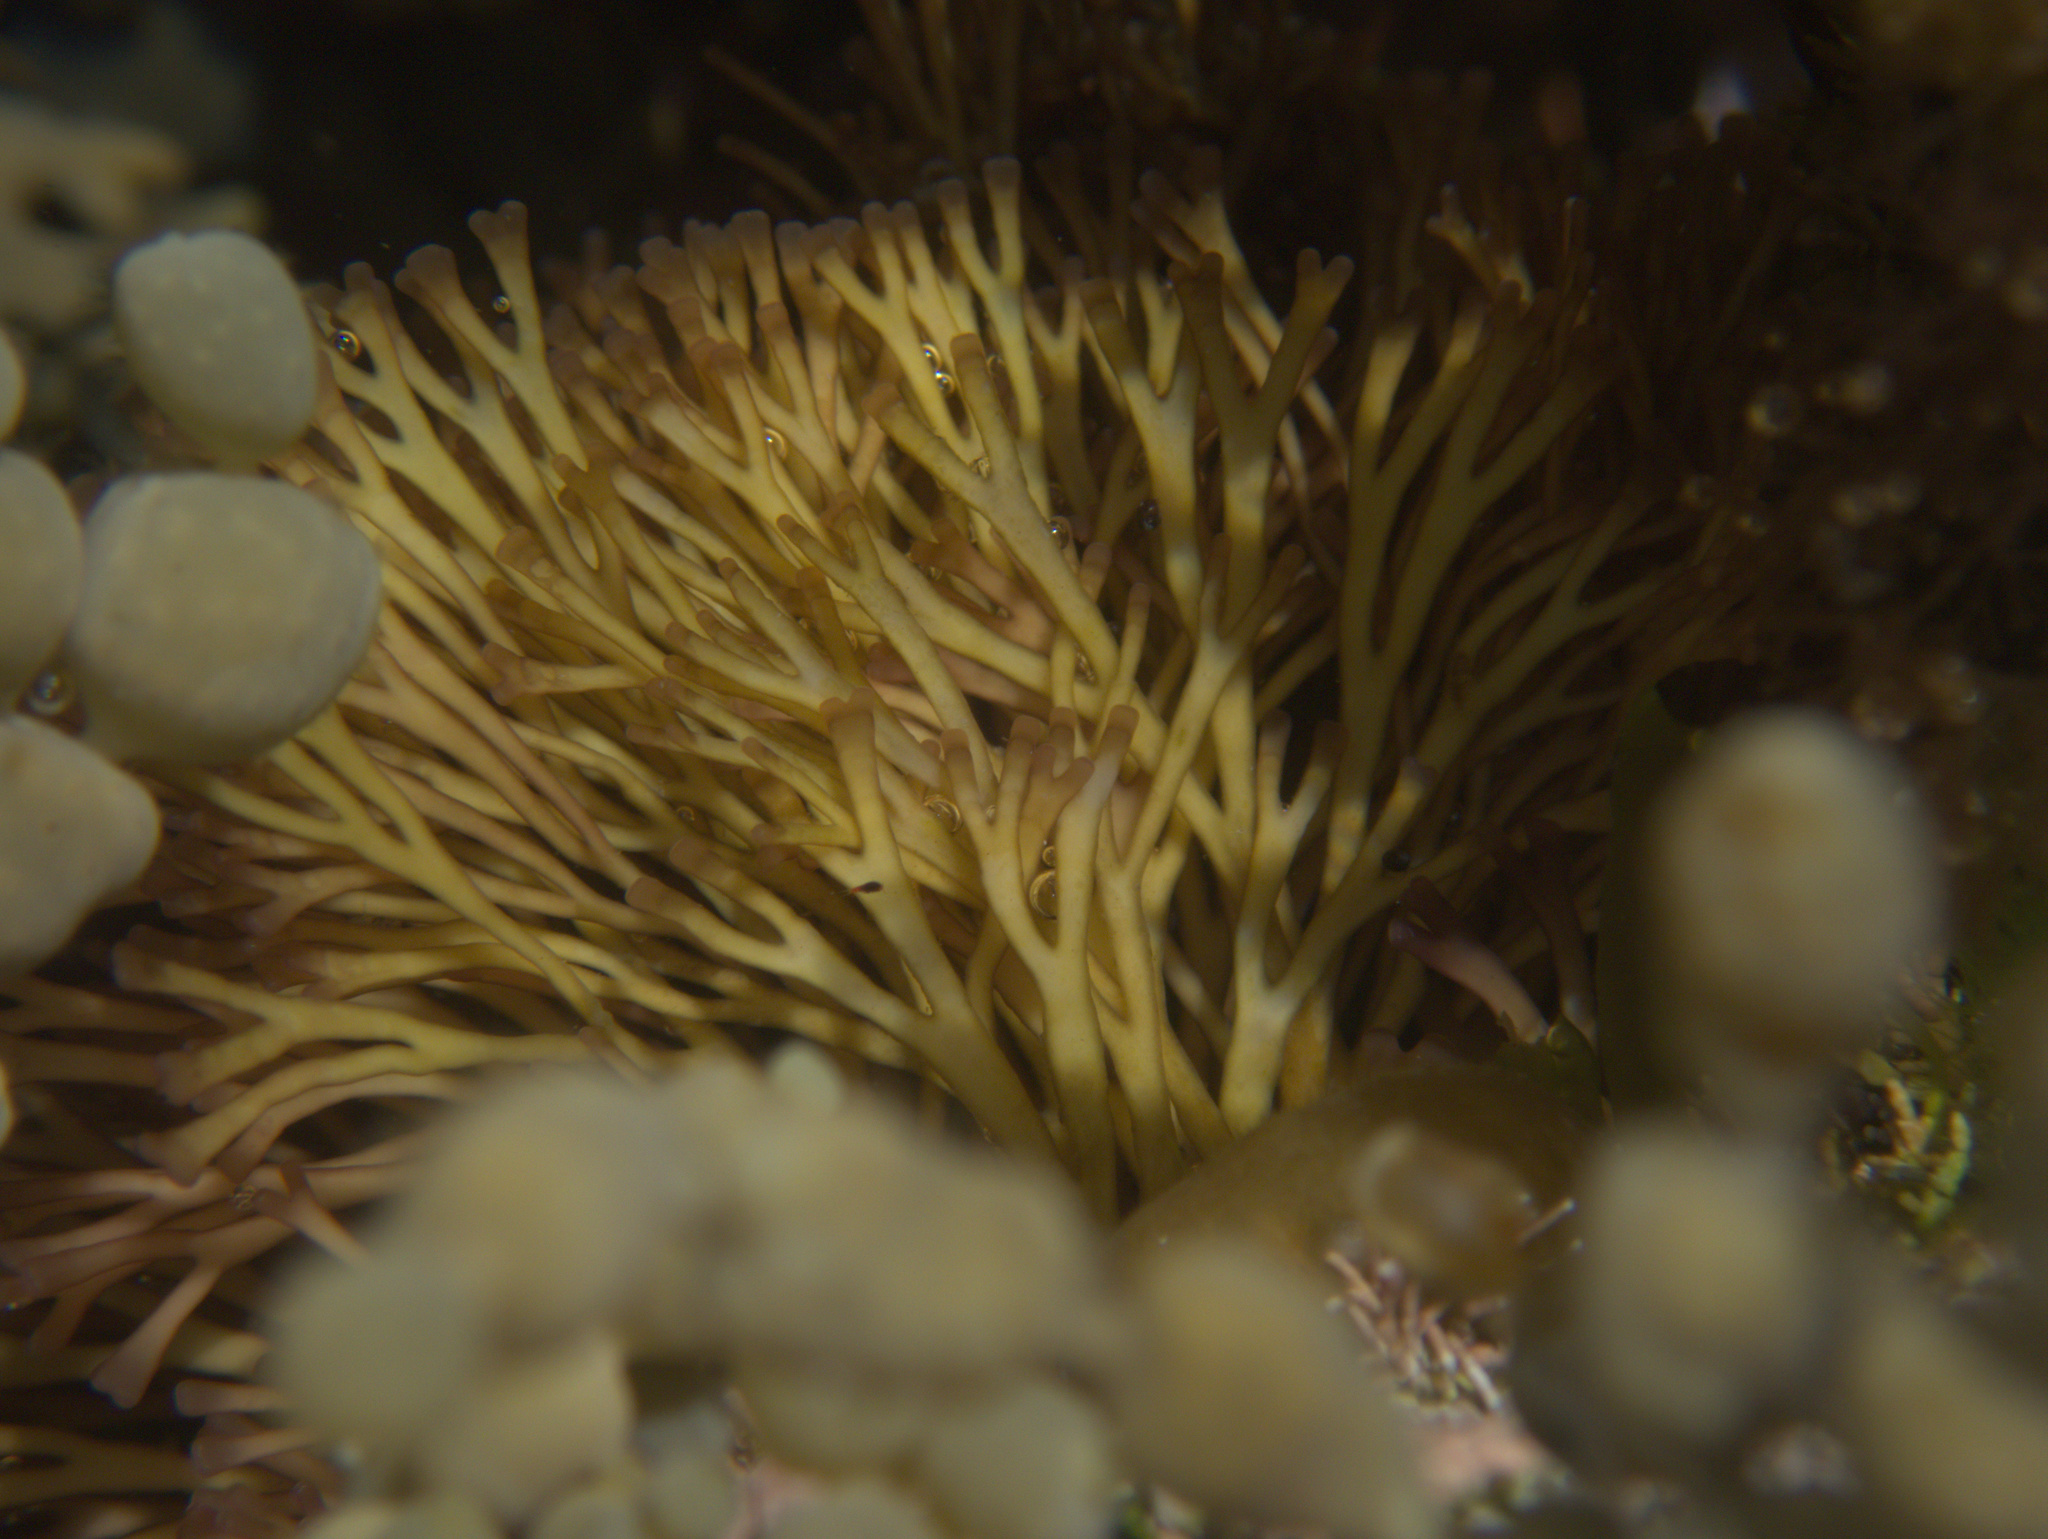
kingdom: Plantae
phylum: Rhodophyta
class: Florideophyceae
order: Gracilariales
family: Gracilariaceae
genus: Melanthalia
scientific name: Melanthalia abscissa
